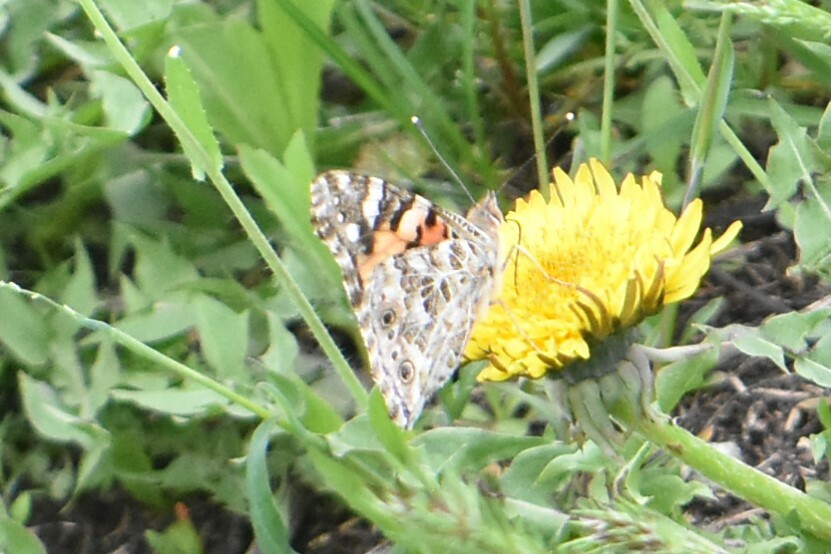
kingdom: Animalia
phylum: Arthropoda
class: Insecta
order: Lepidoptera
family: Nymphalidae
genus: Vanessa
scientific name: Vanessa cardui
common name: Painted lady
